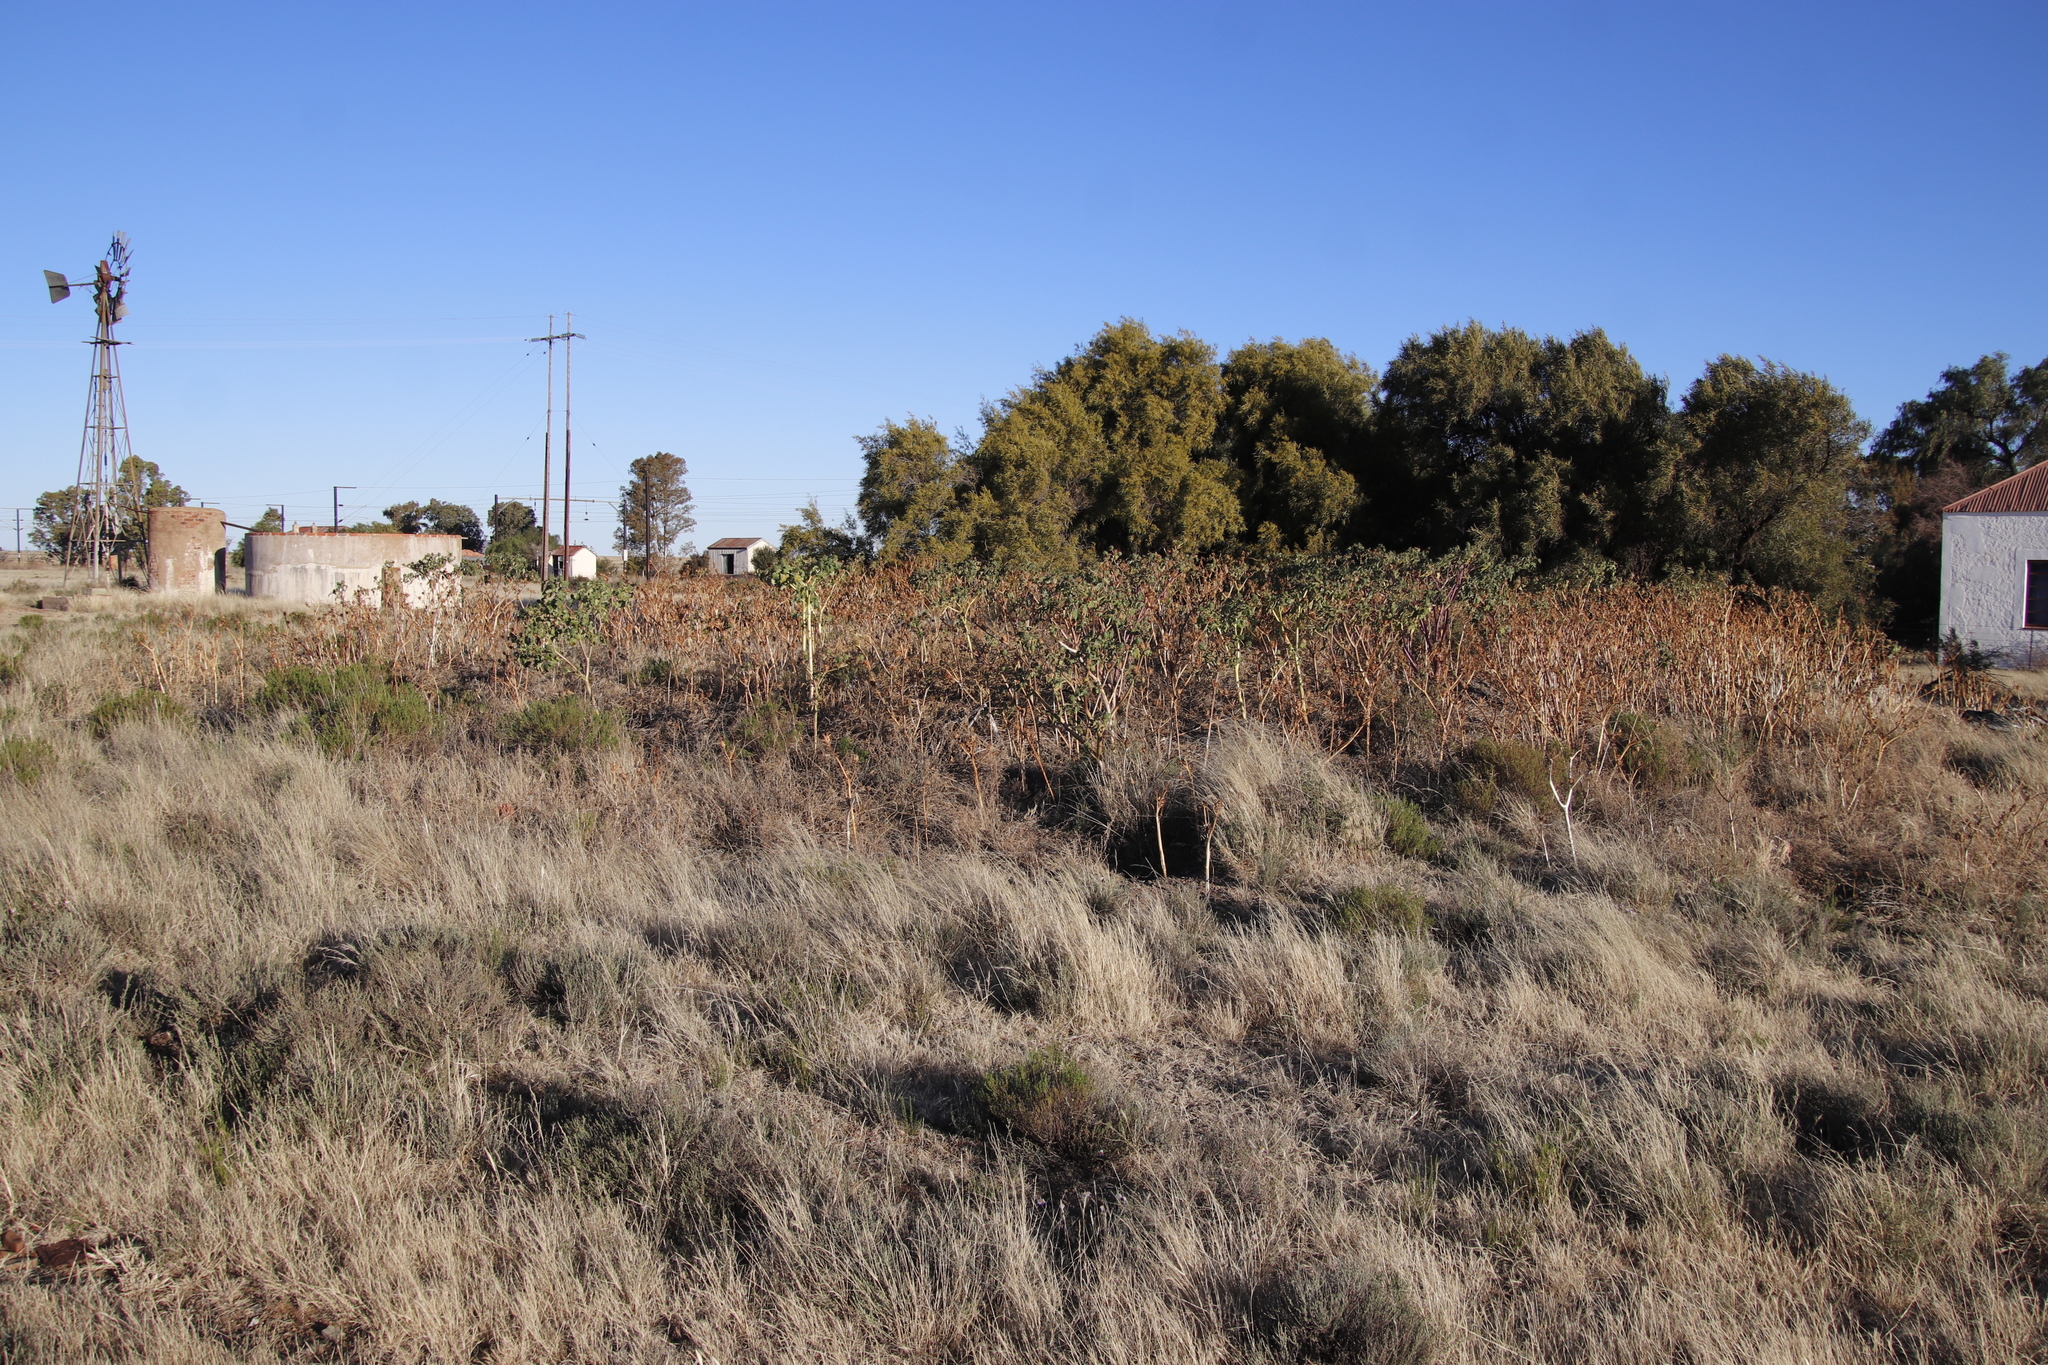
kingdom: Plantae
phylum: Tracheophyta
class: Magnoliopsida
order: Solanales
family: Solanaceae
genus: Datura
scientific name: Datura stramonium
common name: Thorn-apple
